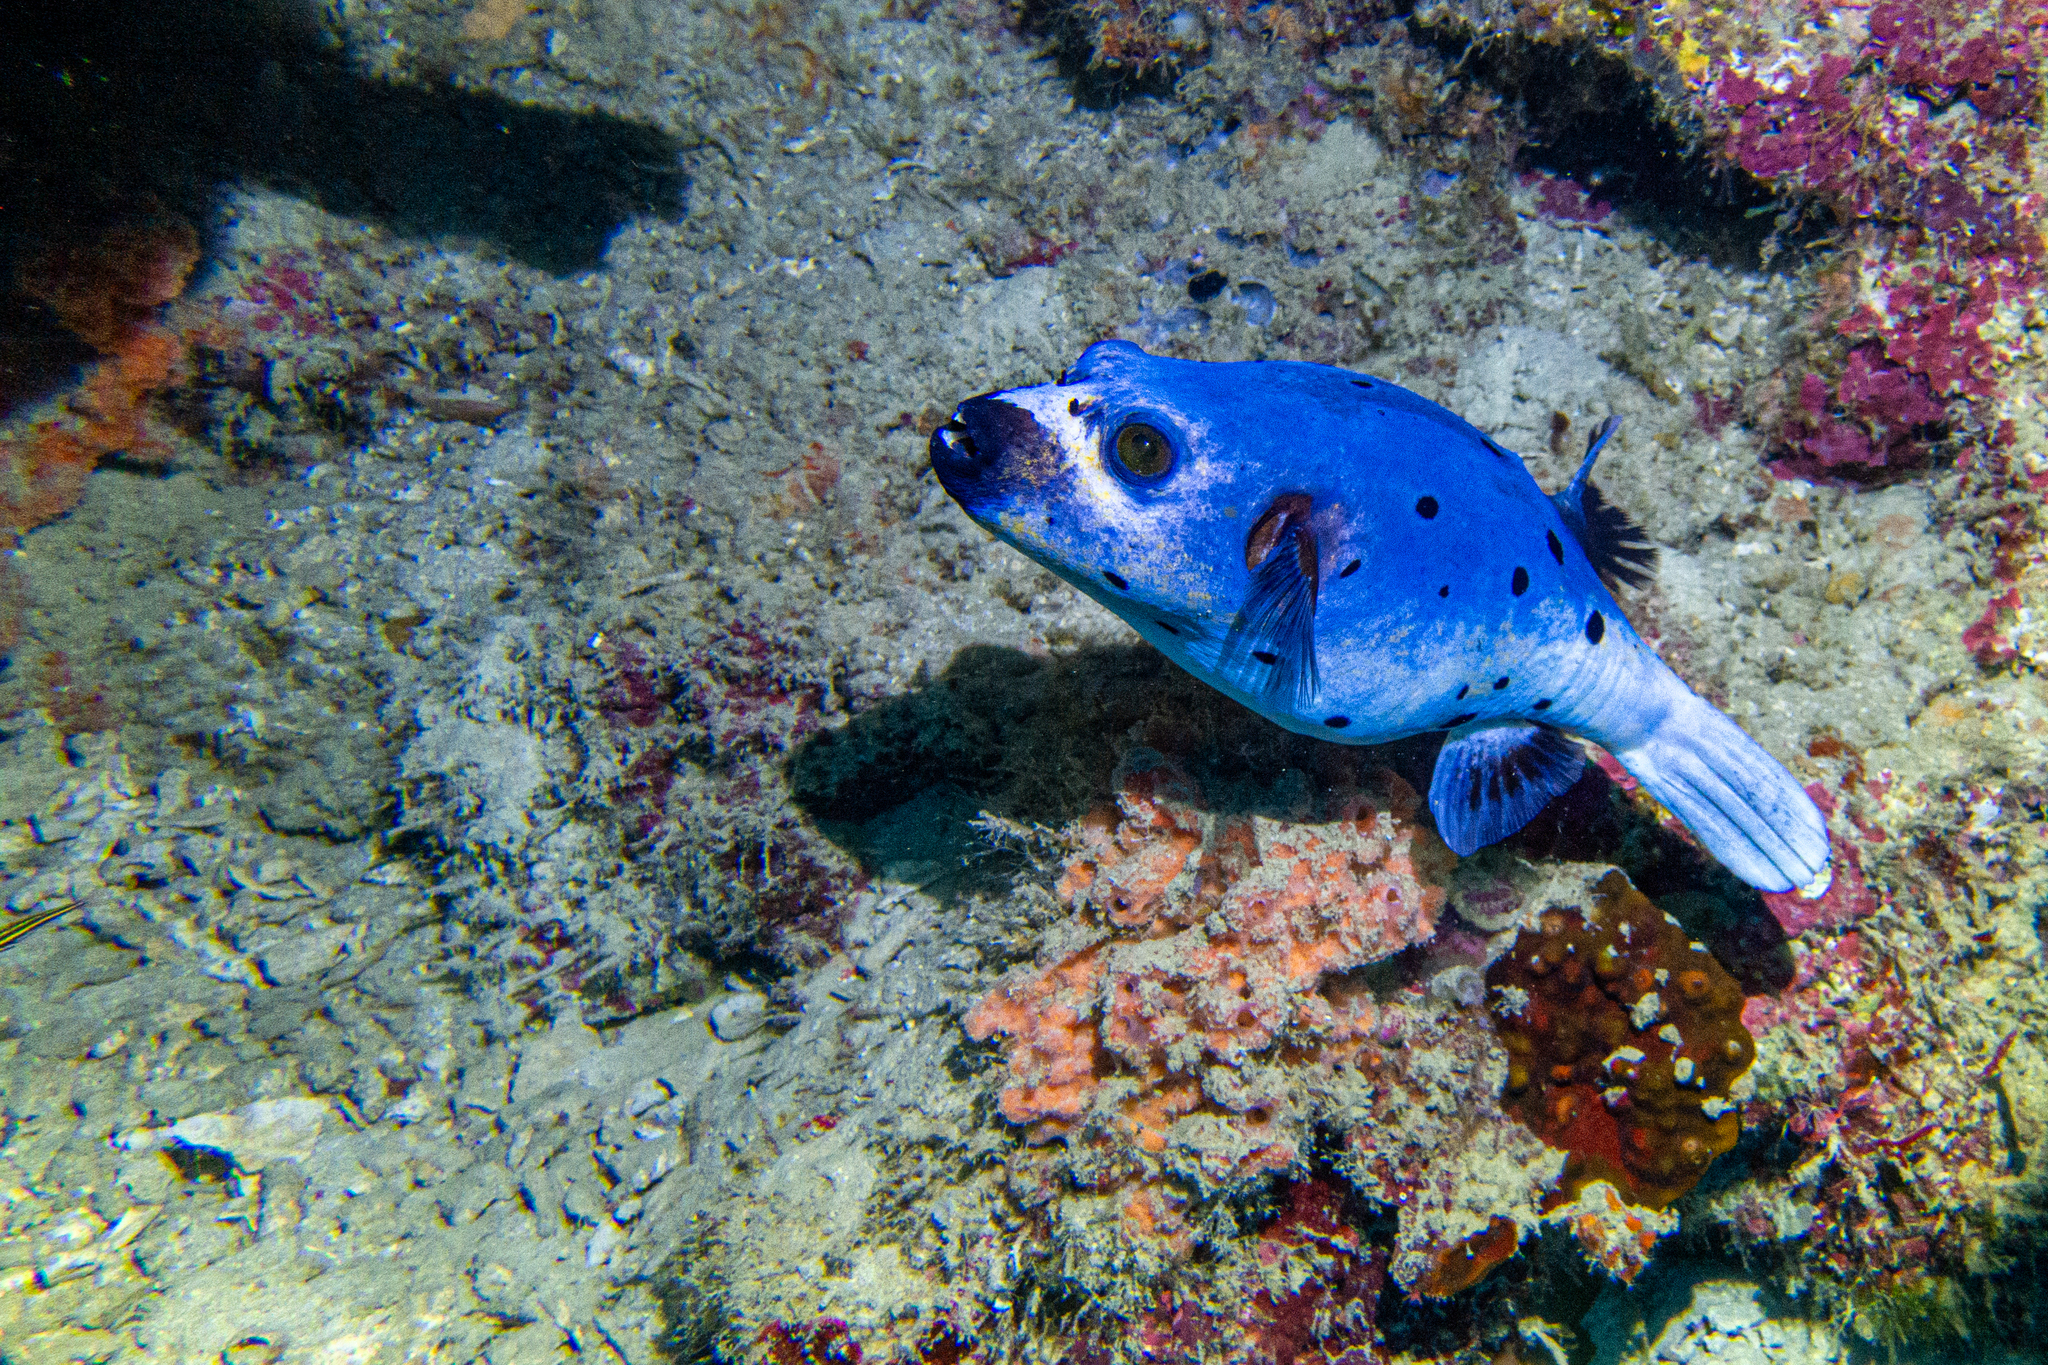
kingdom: Animalia
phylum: Chordata
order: Tetraodontiformes
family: Tetraodontidae
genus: Arothron
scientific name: Arothron nigropunctatus
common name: Black spotted blow fish
